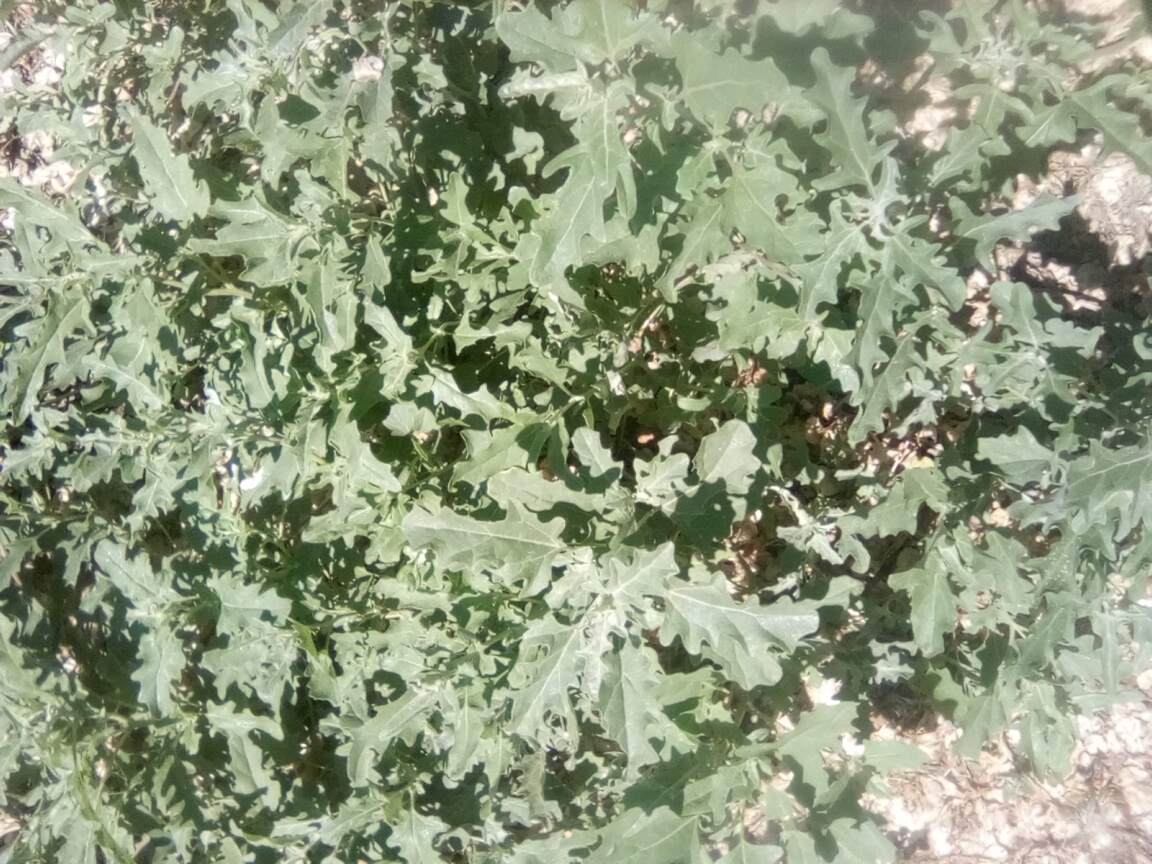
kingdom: Plantae
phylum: Tracheophyta
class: Magnoliopsida
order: Caryophyllales
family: Amaranthaceae
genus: Atriplex
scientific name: Atriplex tatarica
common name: Tatarian orache
